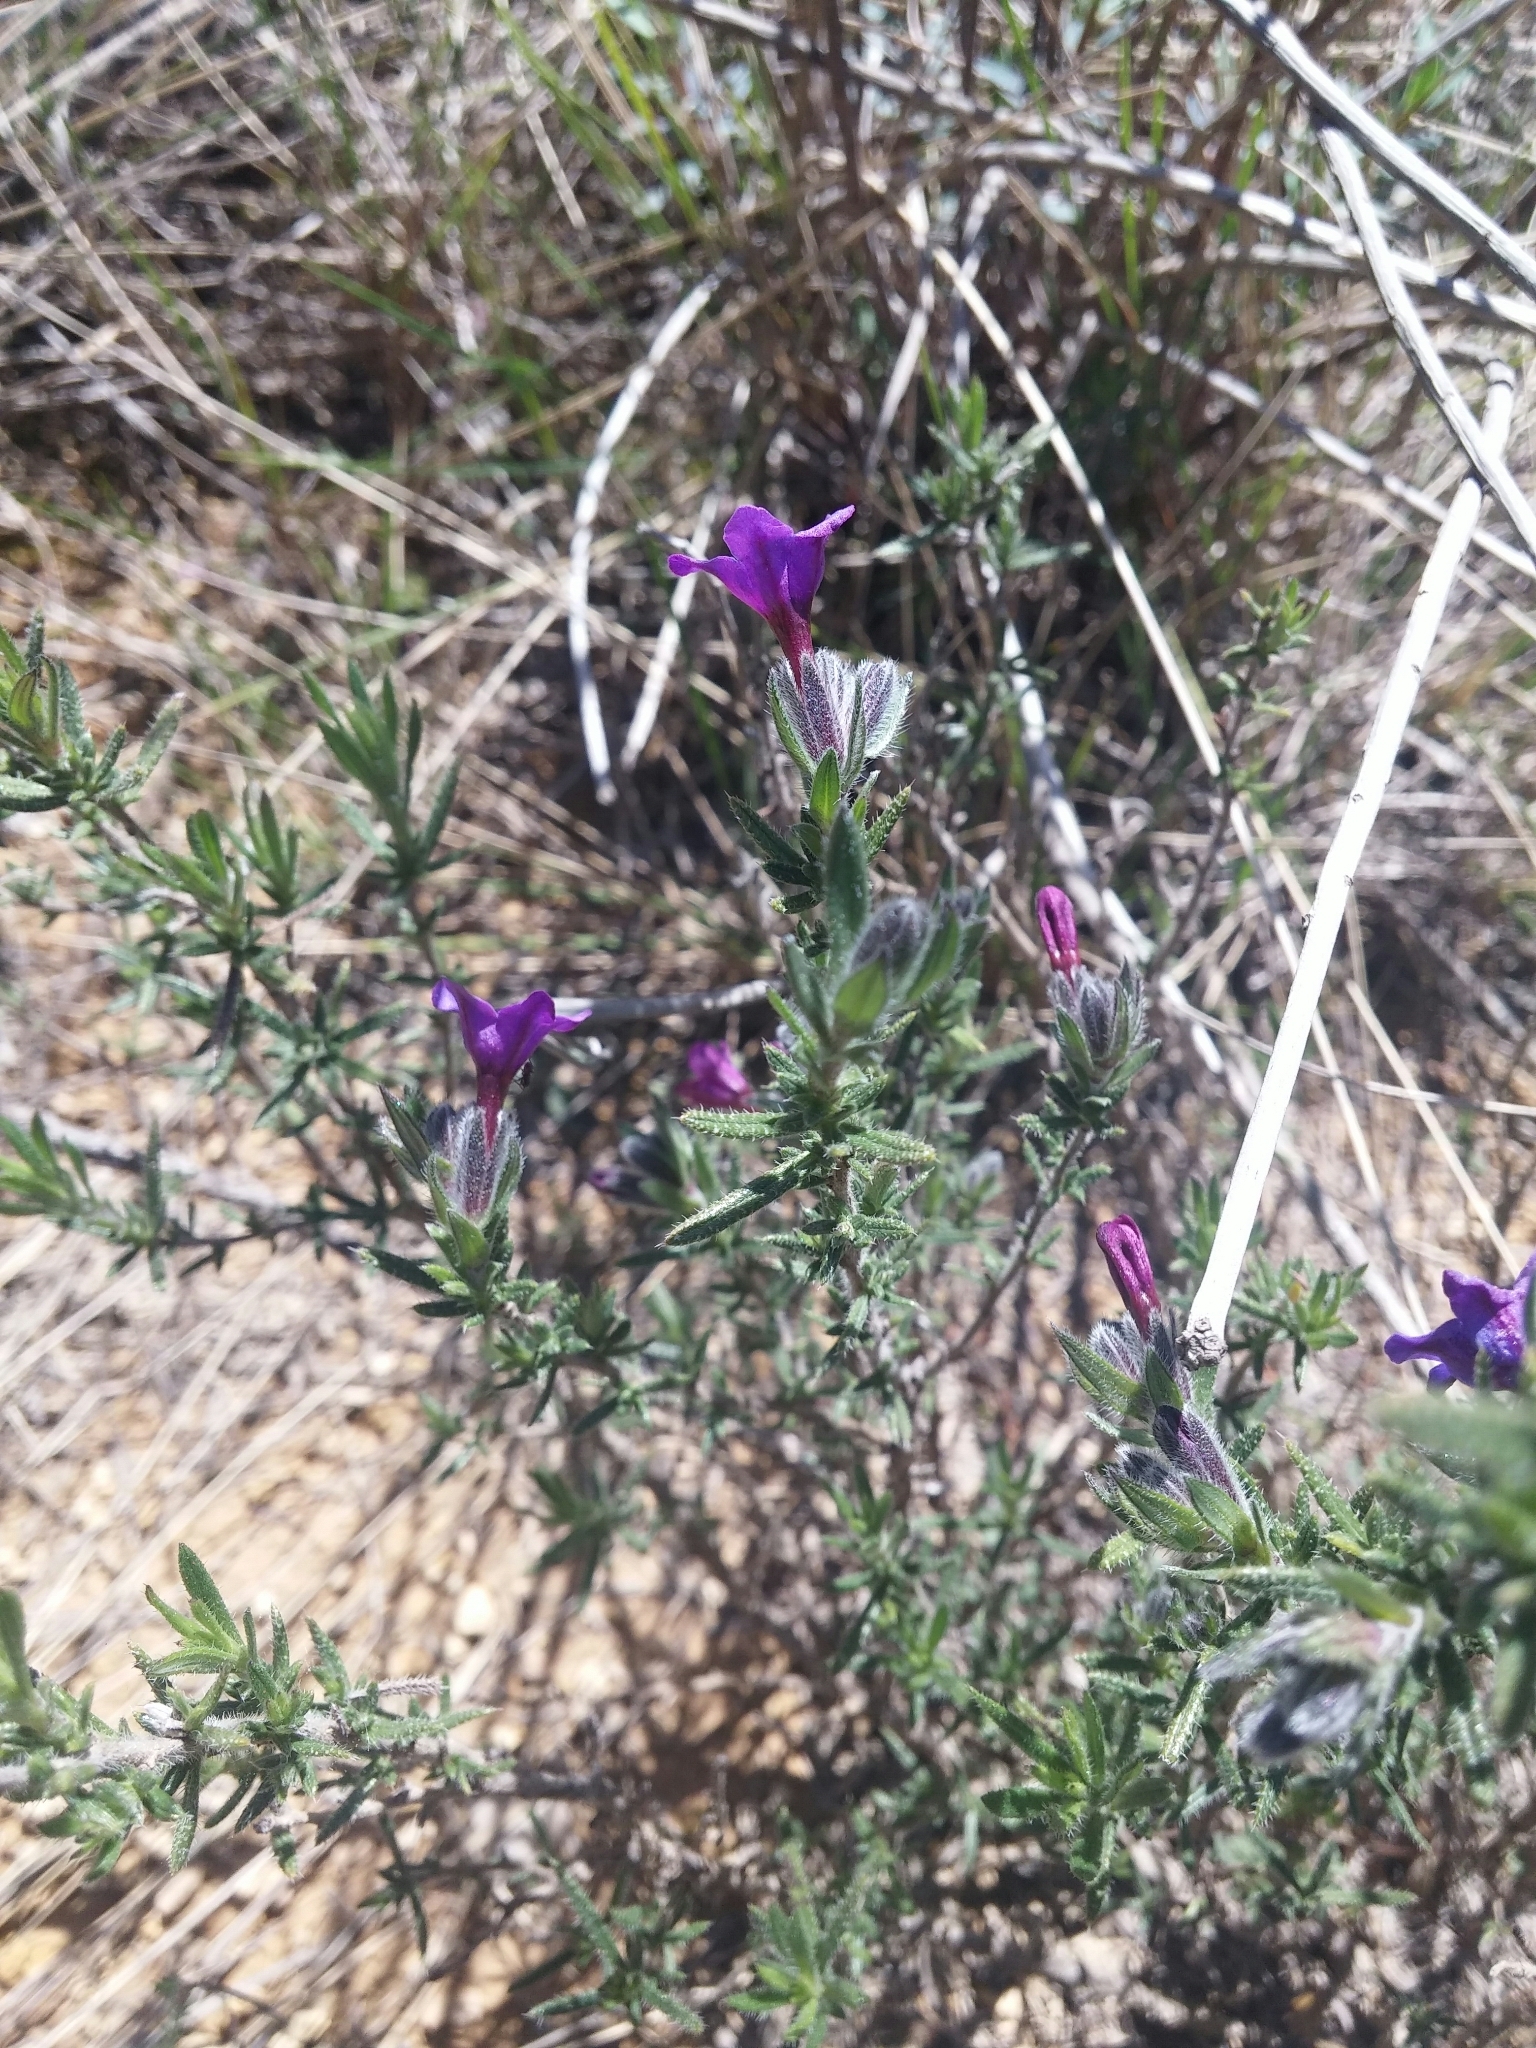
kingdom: Plantae
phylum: Tracheophyta
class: Magnoliopsida
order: Boraginales
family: Boraginaceae
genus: Lithodora
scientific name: Lithodora fruticosa
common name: Shrubby gromwell
